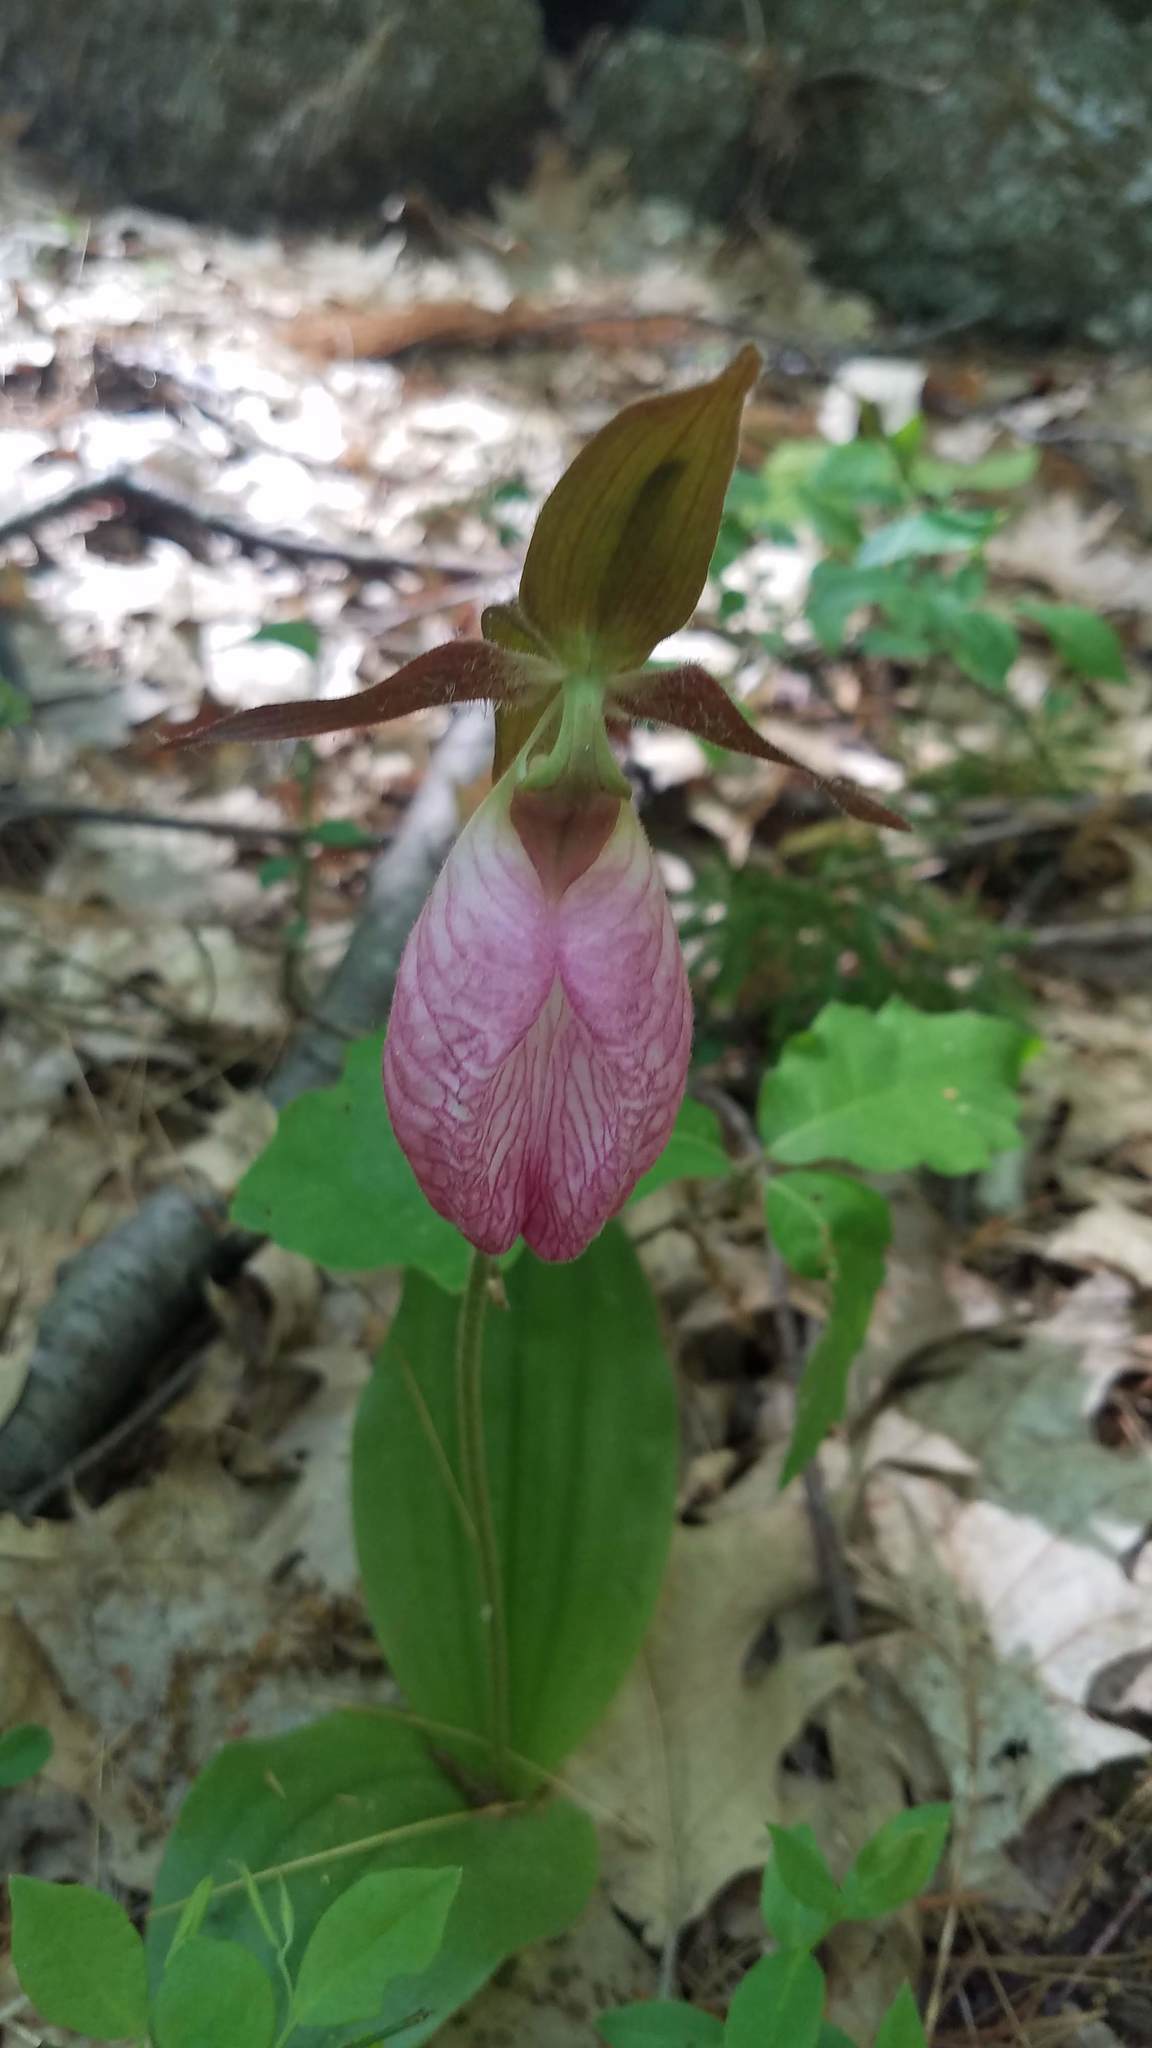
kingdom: Plantae
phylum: Tracheophyta
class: Liliopsida
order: Asparagales
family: Orchidaceae
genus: Cypripedium
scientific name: Cypripedium acaule
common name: Pink lady's-slipper
